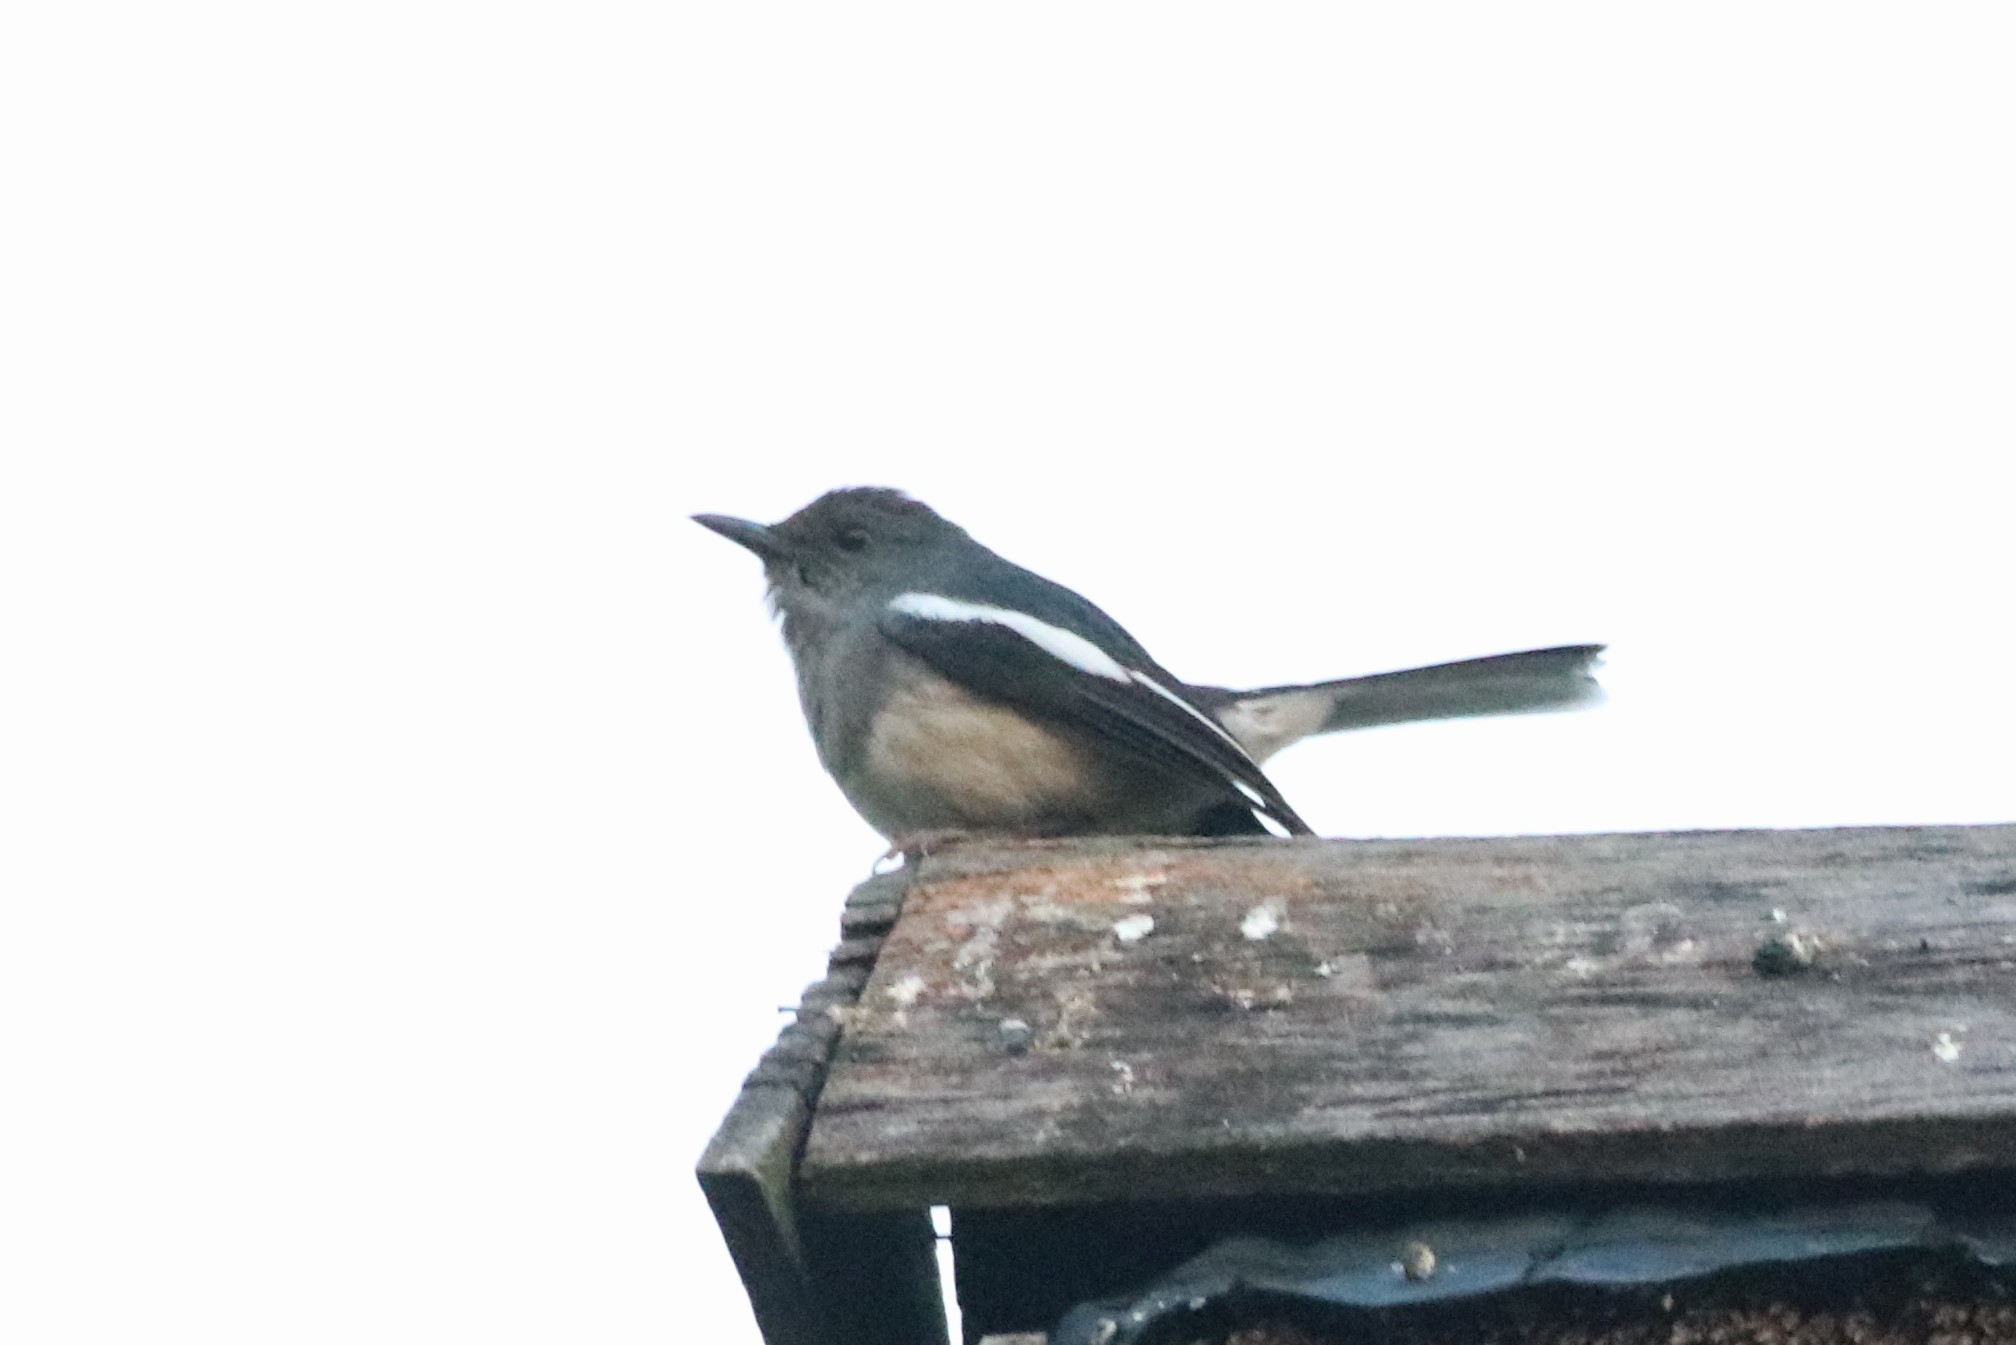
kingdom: Animalia
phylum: Chordata
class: Aves
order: Passeriformes
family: Muscicapidae
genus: Copsychus
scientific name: Copsychus saularis
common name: Oriental magpie-robin
